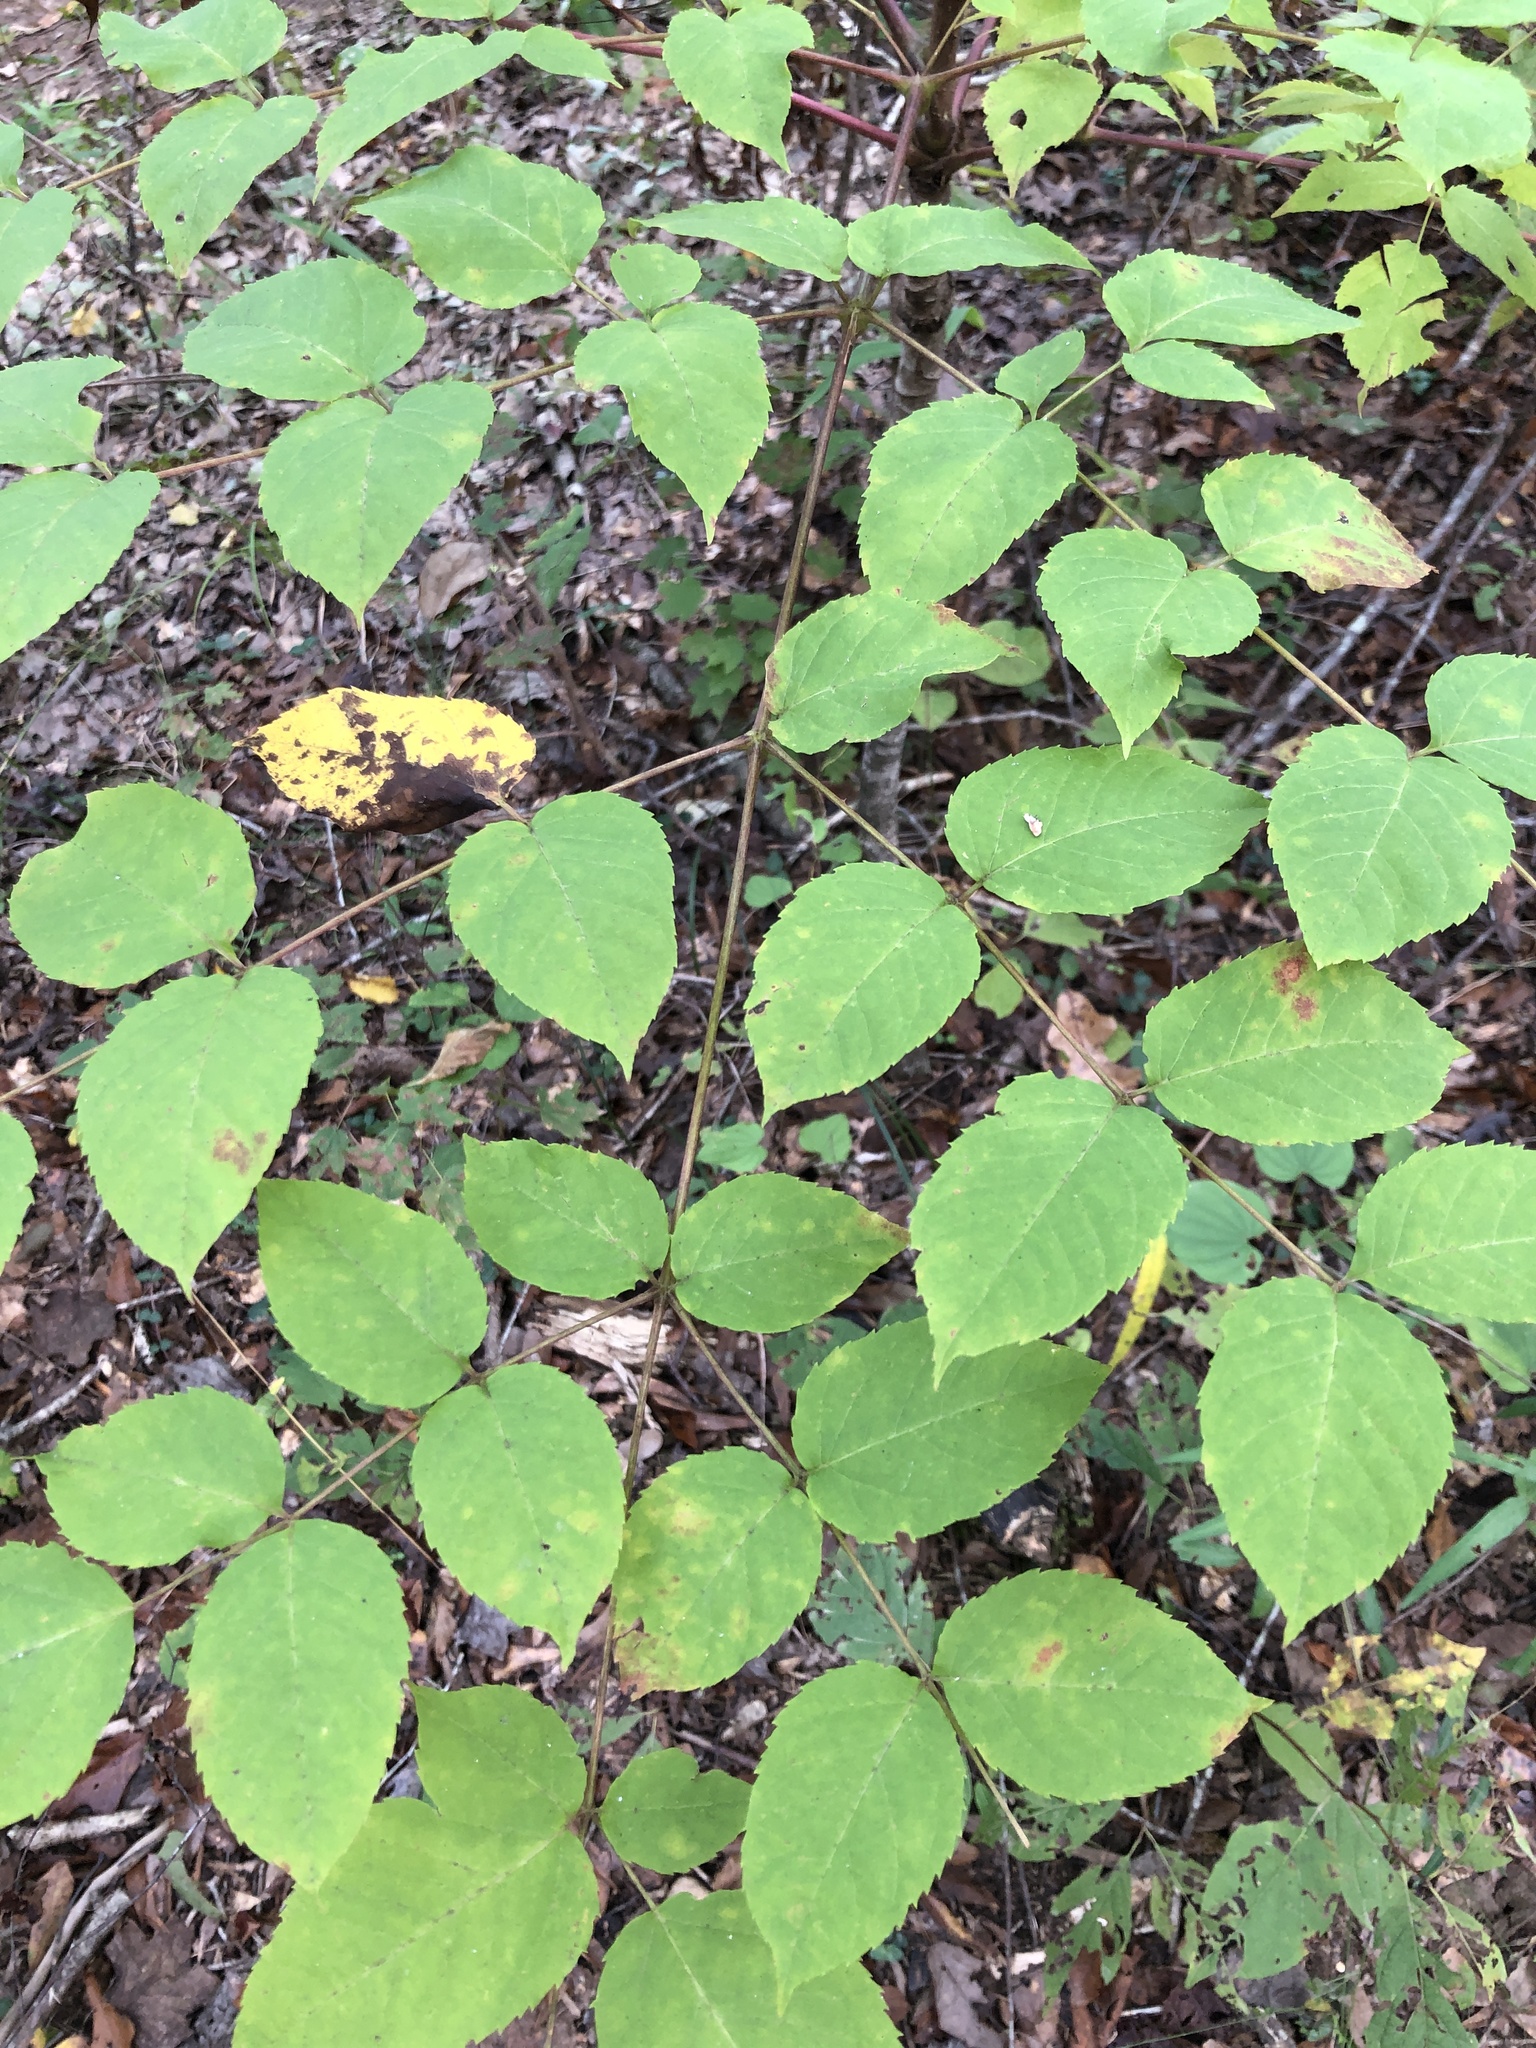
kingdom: Plantae
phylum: Tracheophyta
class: Magnoliopsida
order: Apiales
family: Araliaceae
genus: Aralia
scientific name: Aralia spinosa
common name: Hercules'-club
